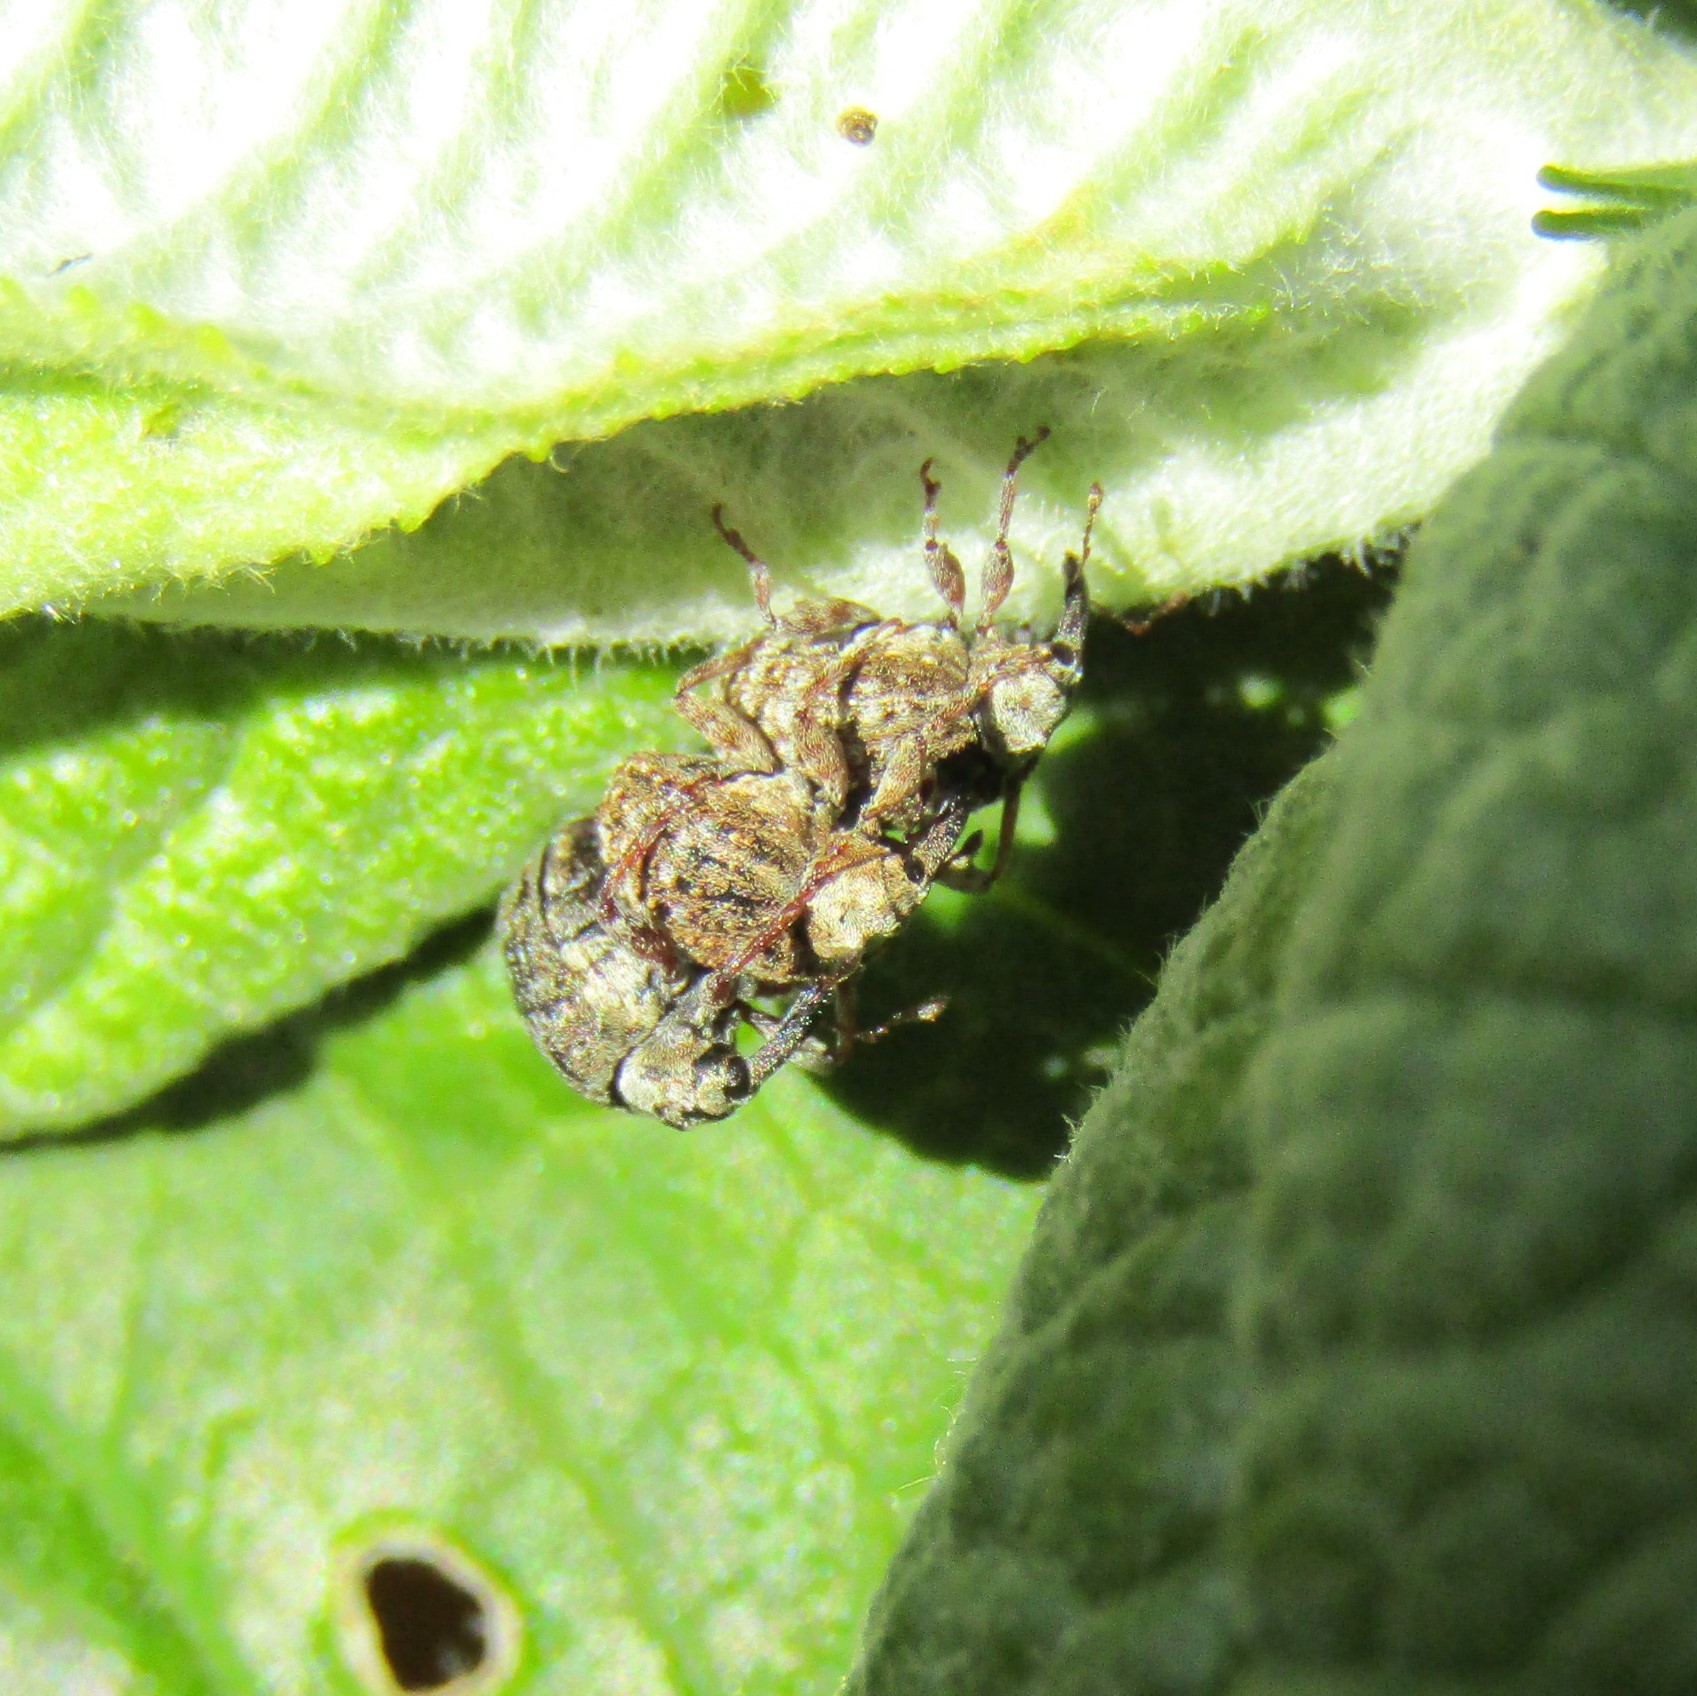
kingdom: Animalia
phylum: Arthropoda
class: Insecta
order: Coleoptera
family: Curculionidae
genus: Cleopus
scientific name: Cleopus japonicus
